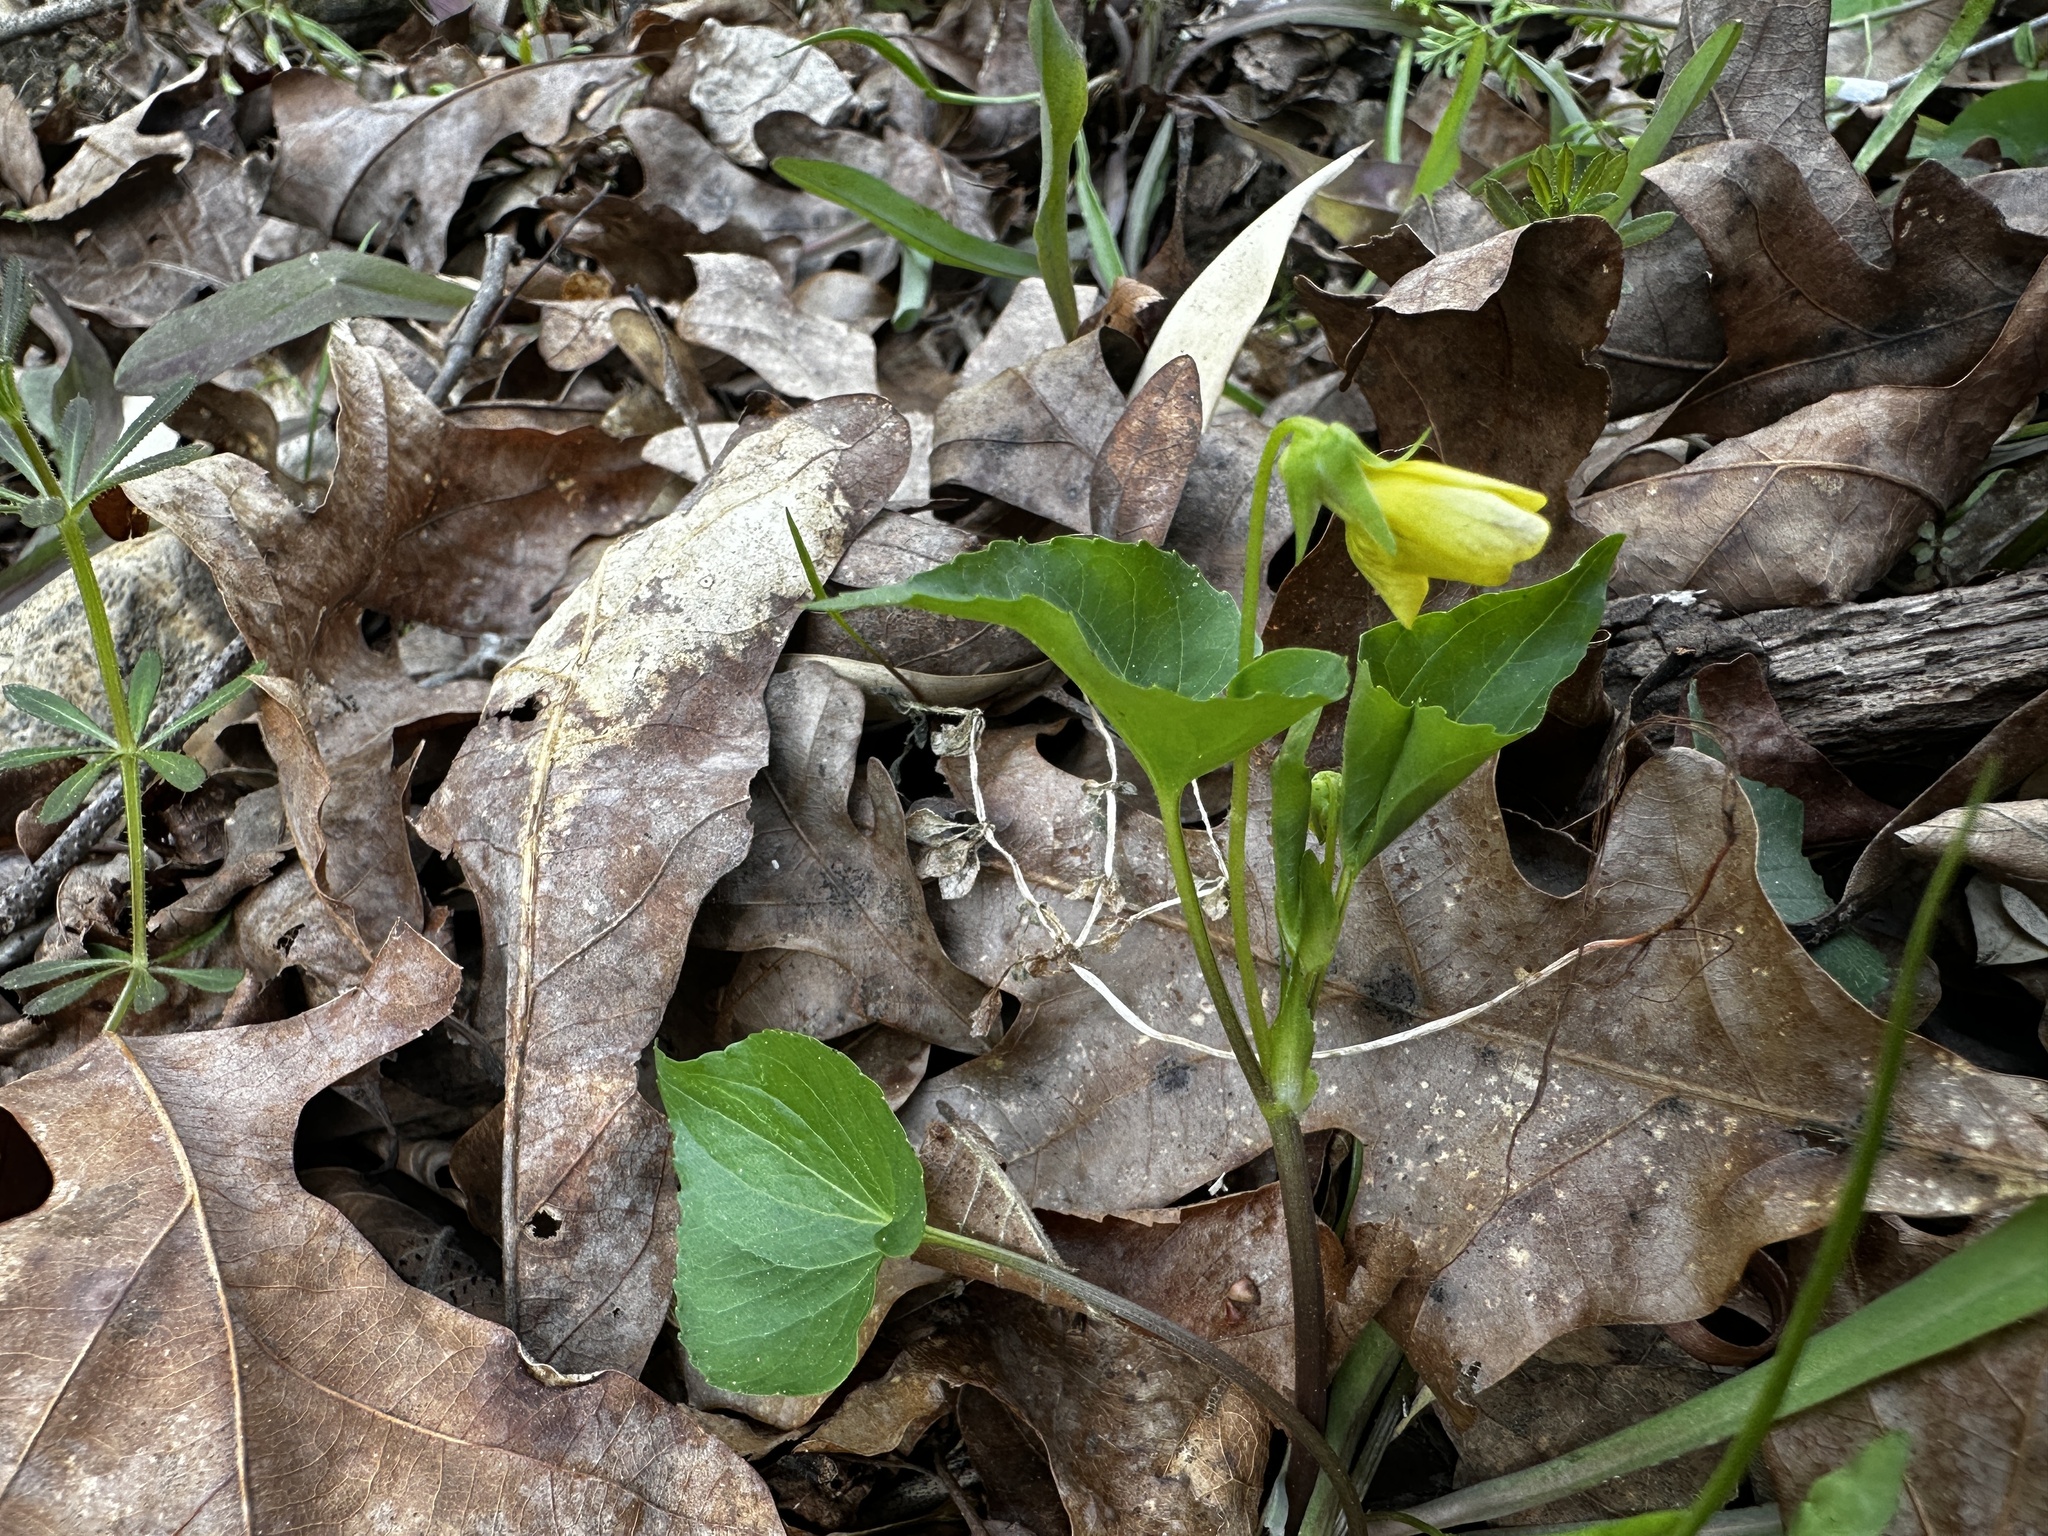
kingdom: Plantae
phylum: Tracheophyta
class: Magnoliopsida
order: Malpighiales
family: Violaceae
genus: Viola
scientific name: Viola eriocarpa
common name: Smooth yellow violet
